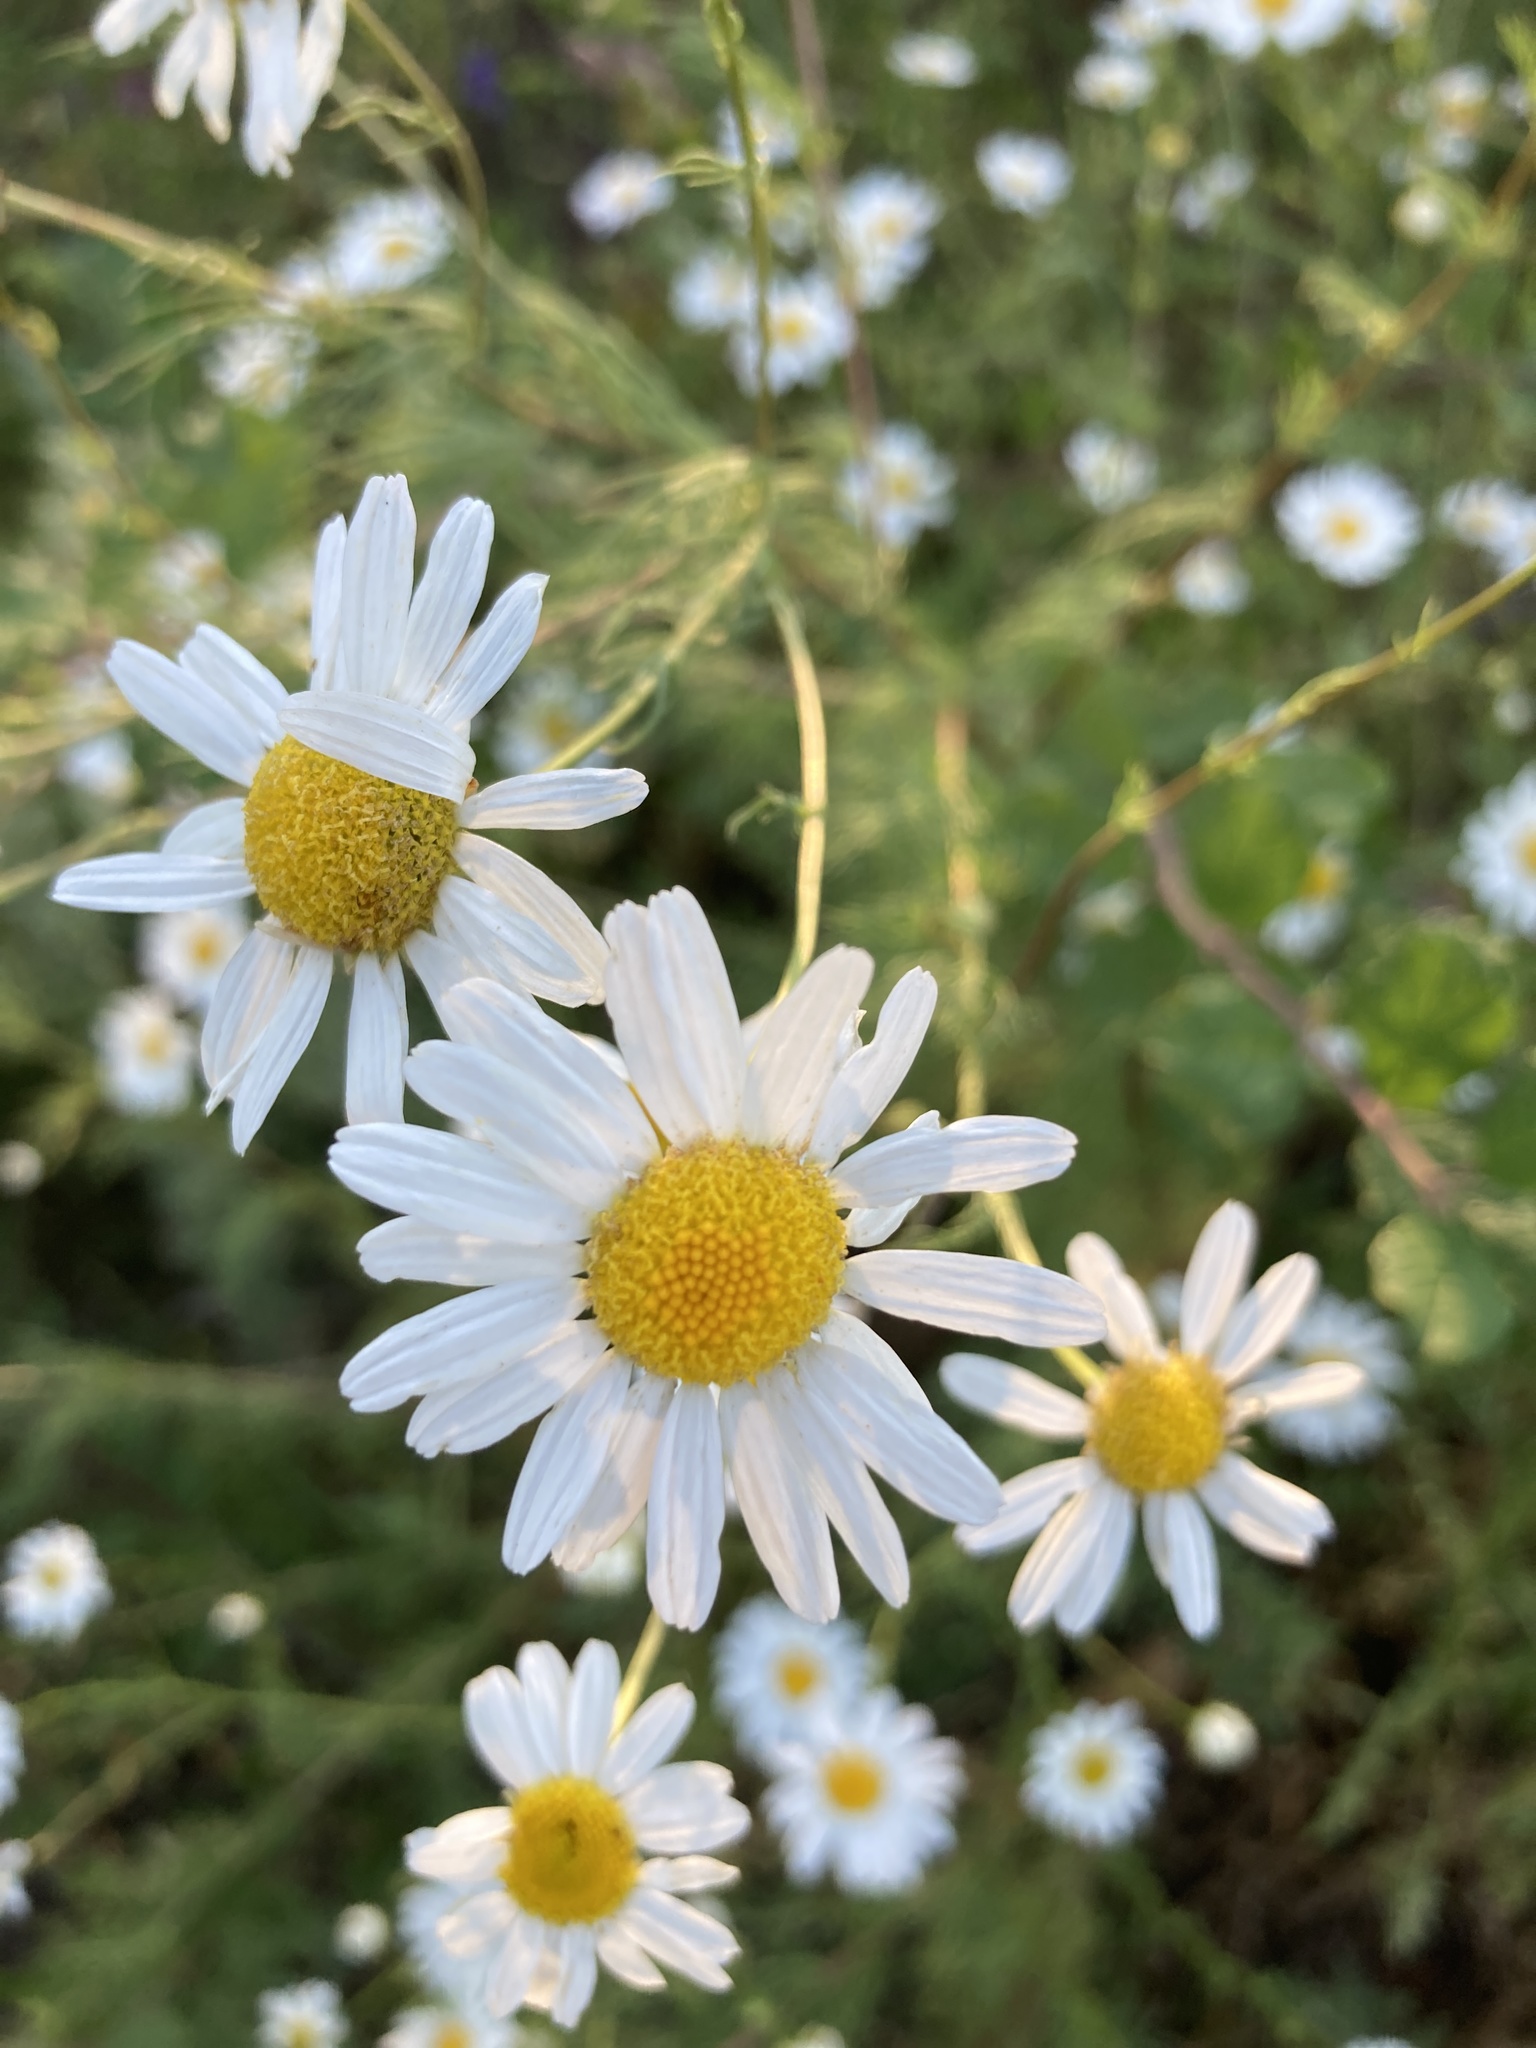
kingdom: Plantae
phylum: Tracheophyta
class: Magnoliopsida
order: Asterales
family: Asteraceae
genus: Tripleurospermum
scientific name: Tripleurospermum inodorum
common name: Scentless mayweed
